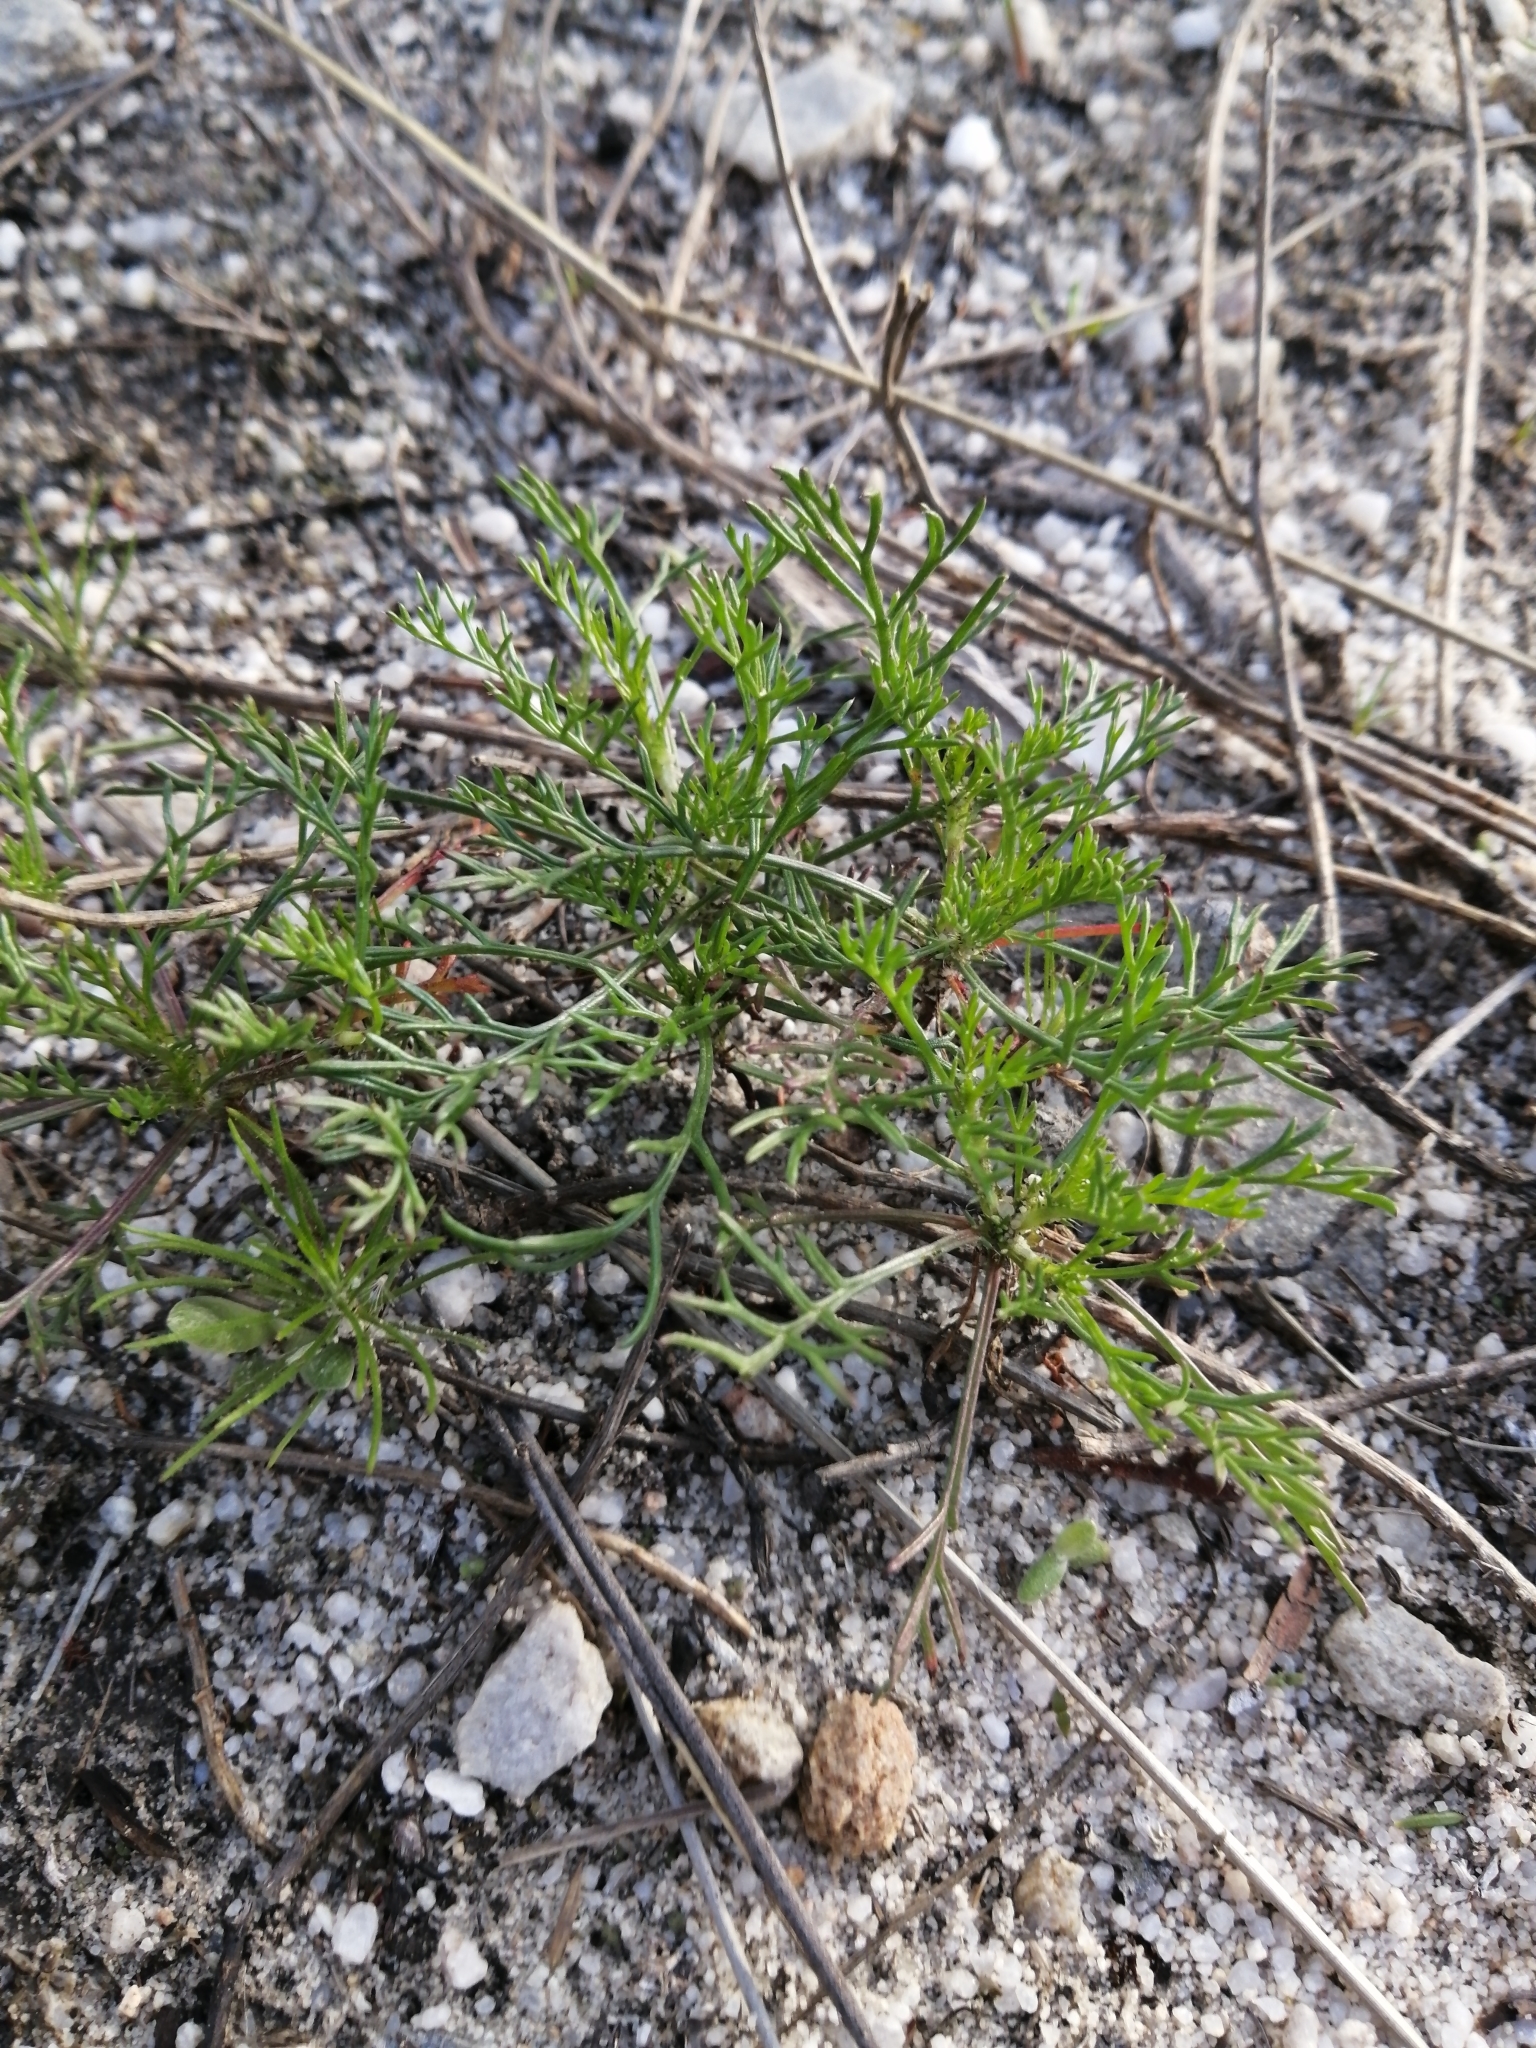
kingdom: Plantae
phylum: Tracheophyta
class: Magnoliopsida
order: Asterales
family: Asteraceae
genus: Ursinia
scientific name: Ursinia chrysanthemoides
